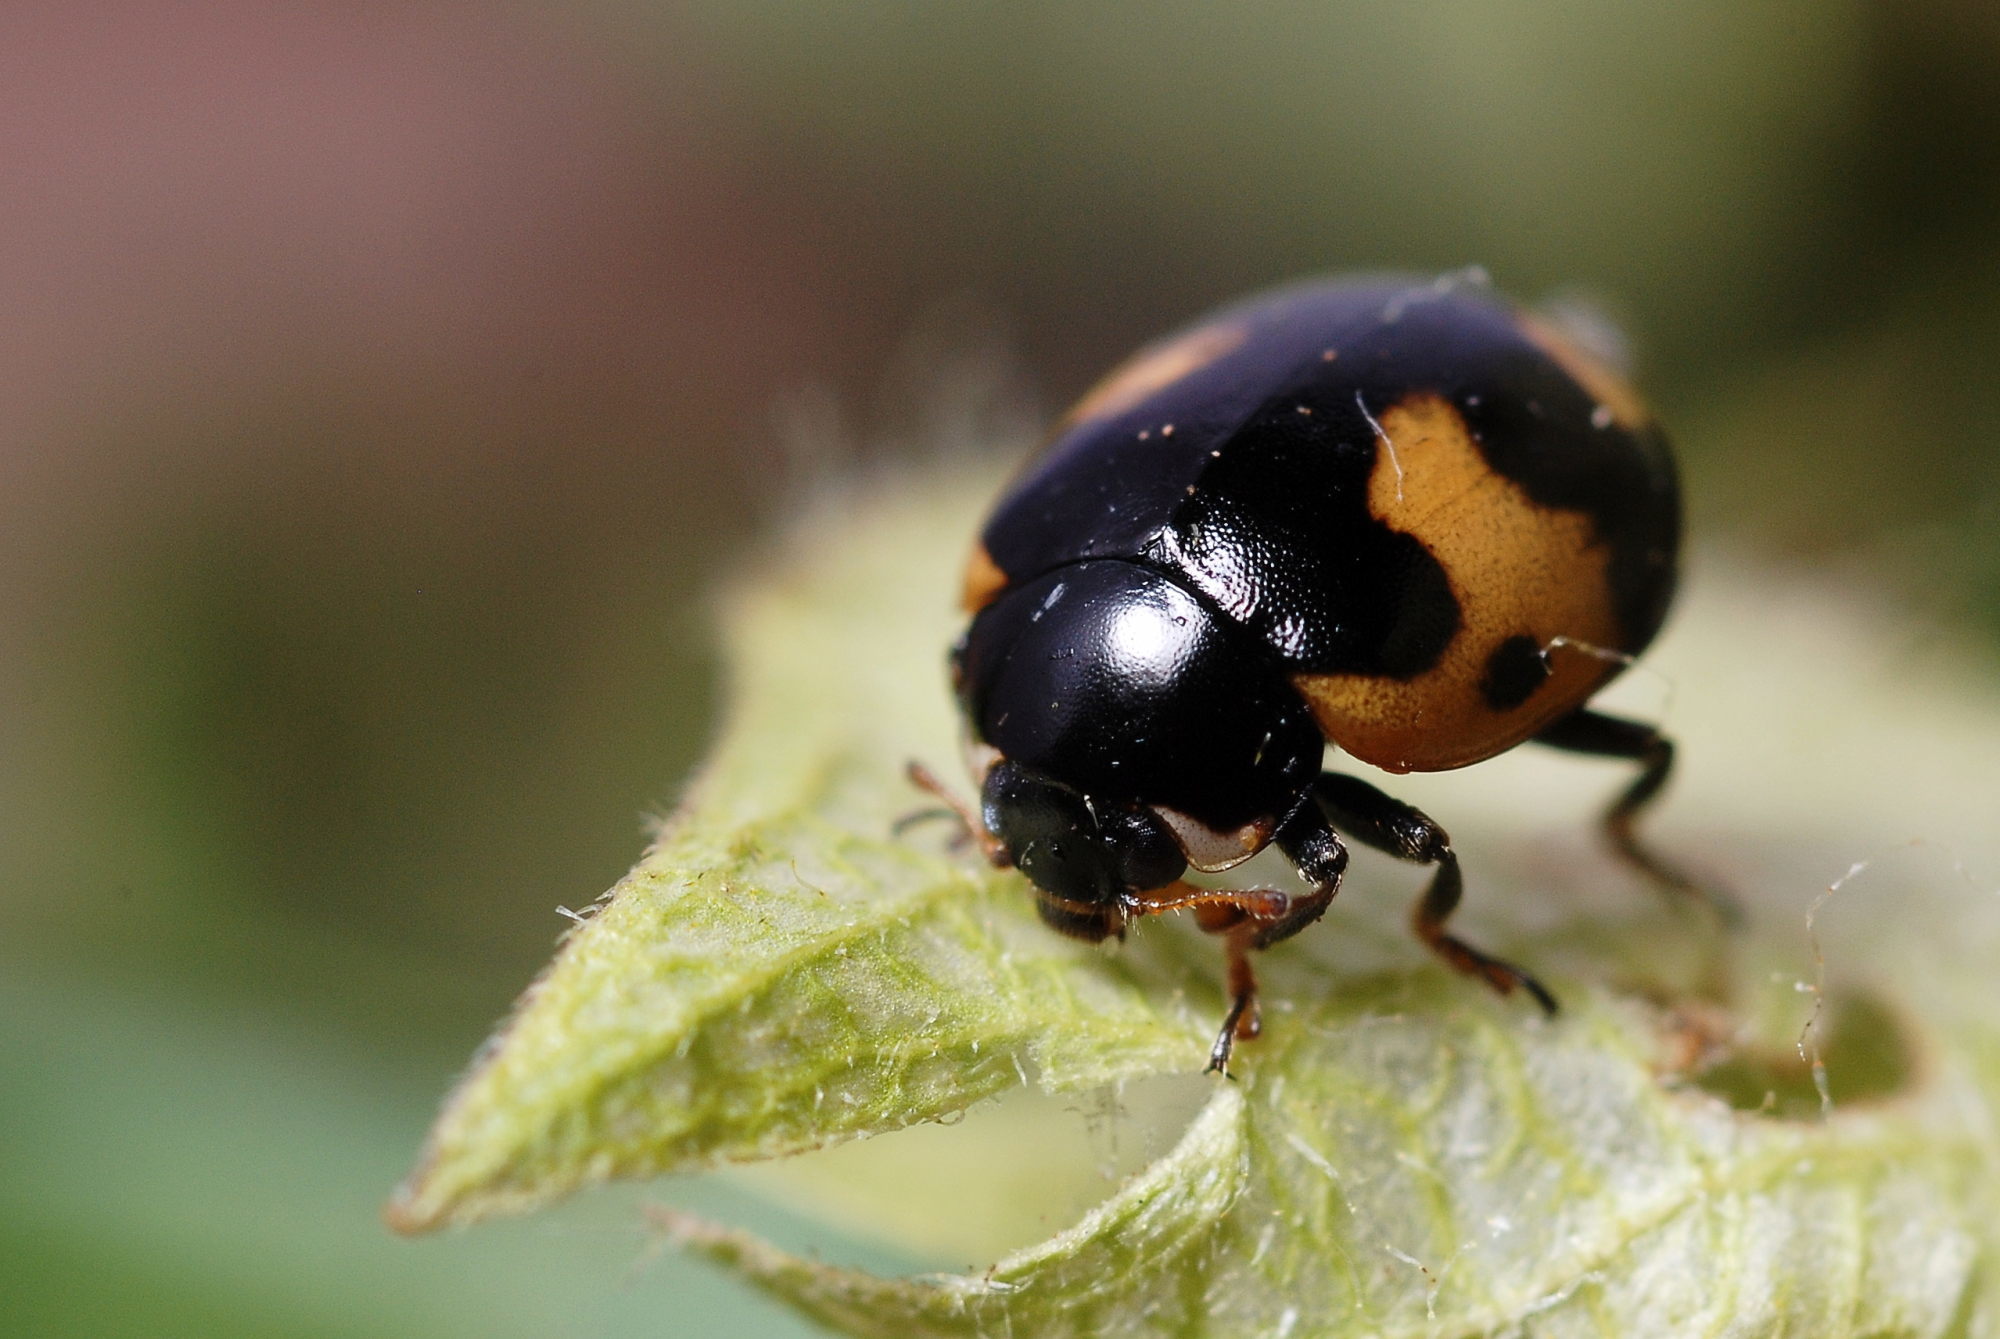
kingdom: Animalia
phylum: Arthropoda
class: Insecta
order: Coleoptera
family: Coccinellidae
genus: Ceratomegilla
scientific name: Ceratomegilla alpina
